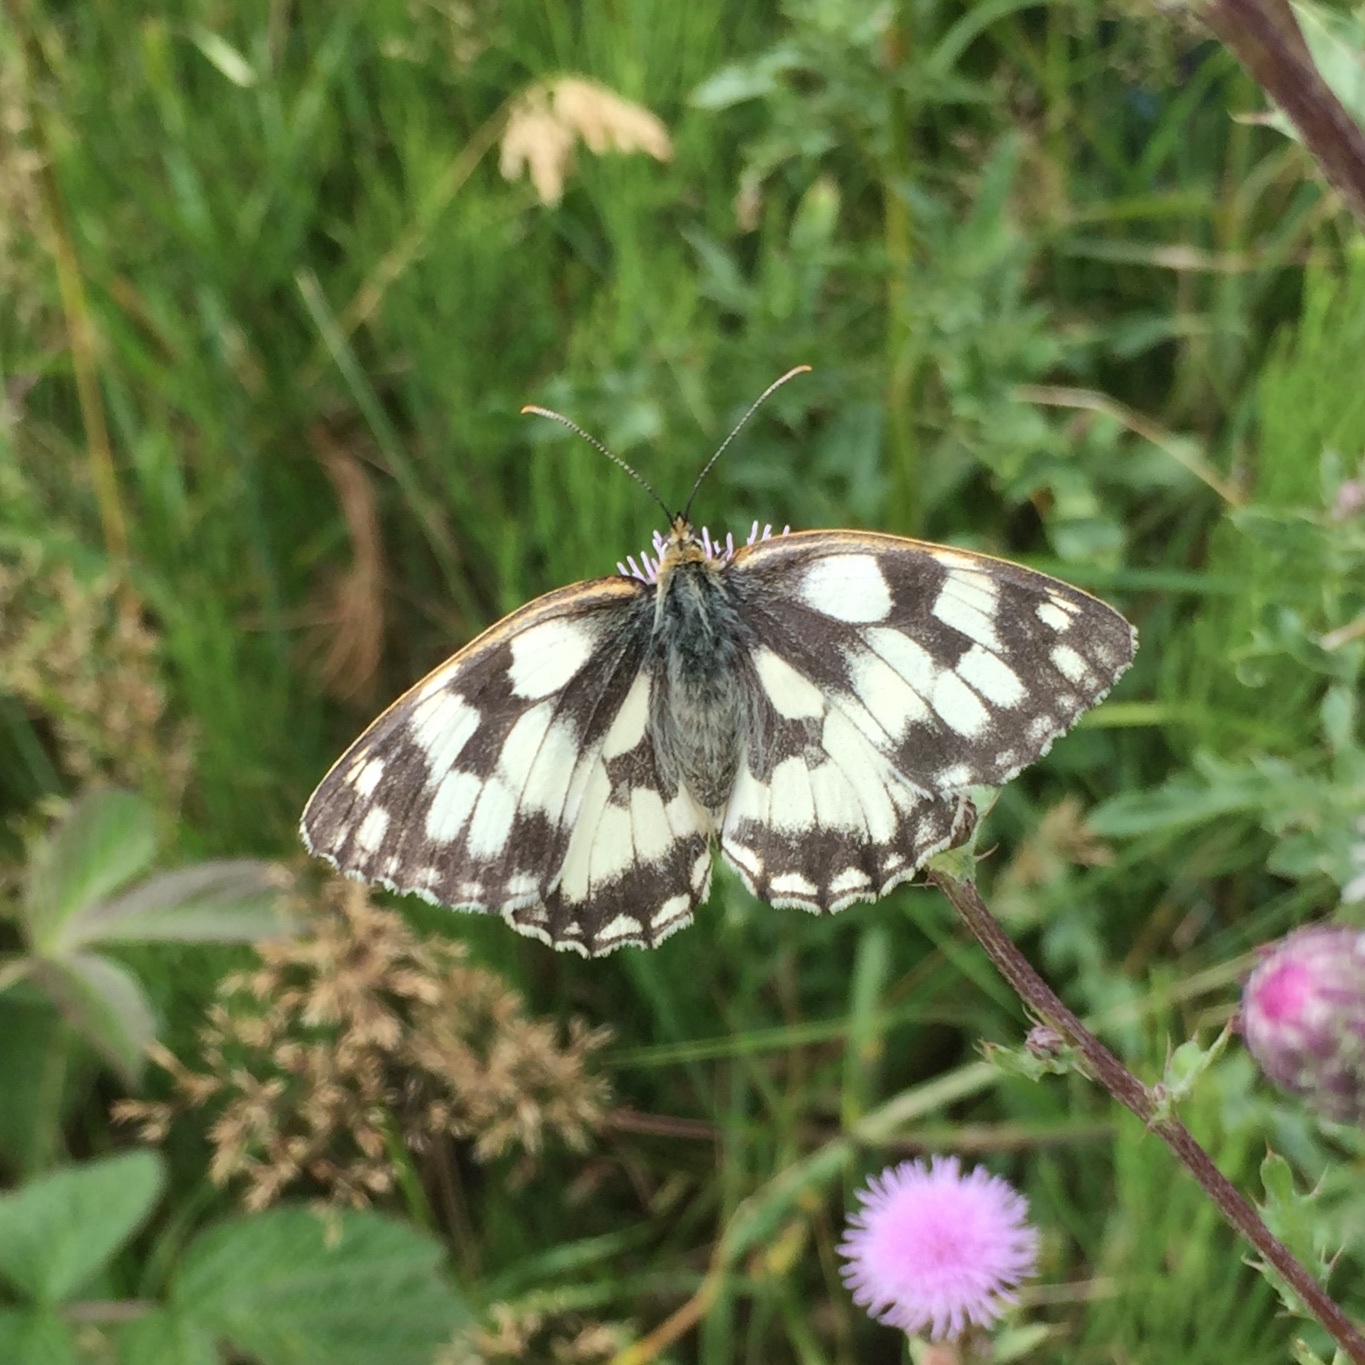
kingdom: Animalia
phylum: Arthropoda
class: Insecta
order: Lepidoptera
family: Nymphalidae
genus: Melanargia
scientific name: Melanargia galathea
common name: Marbled white
